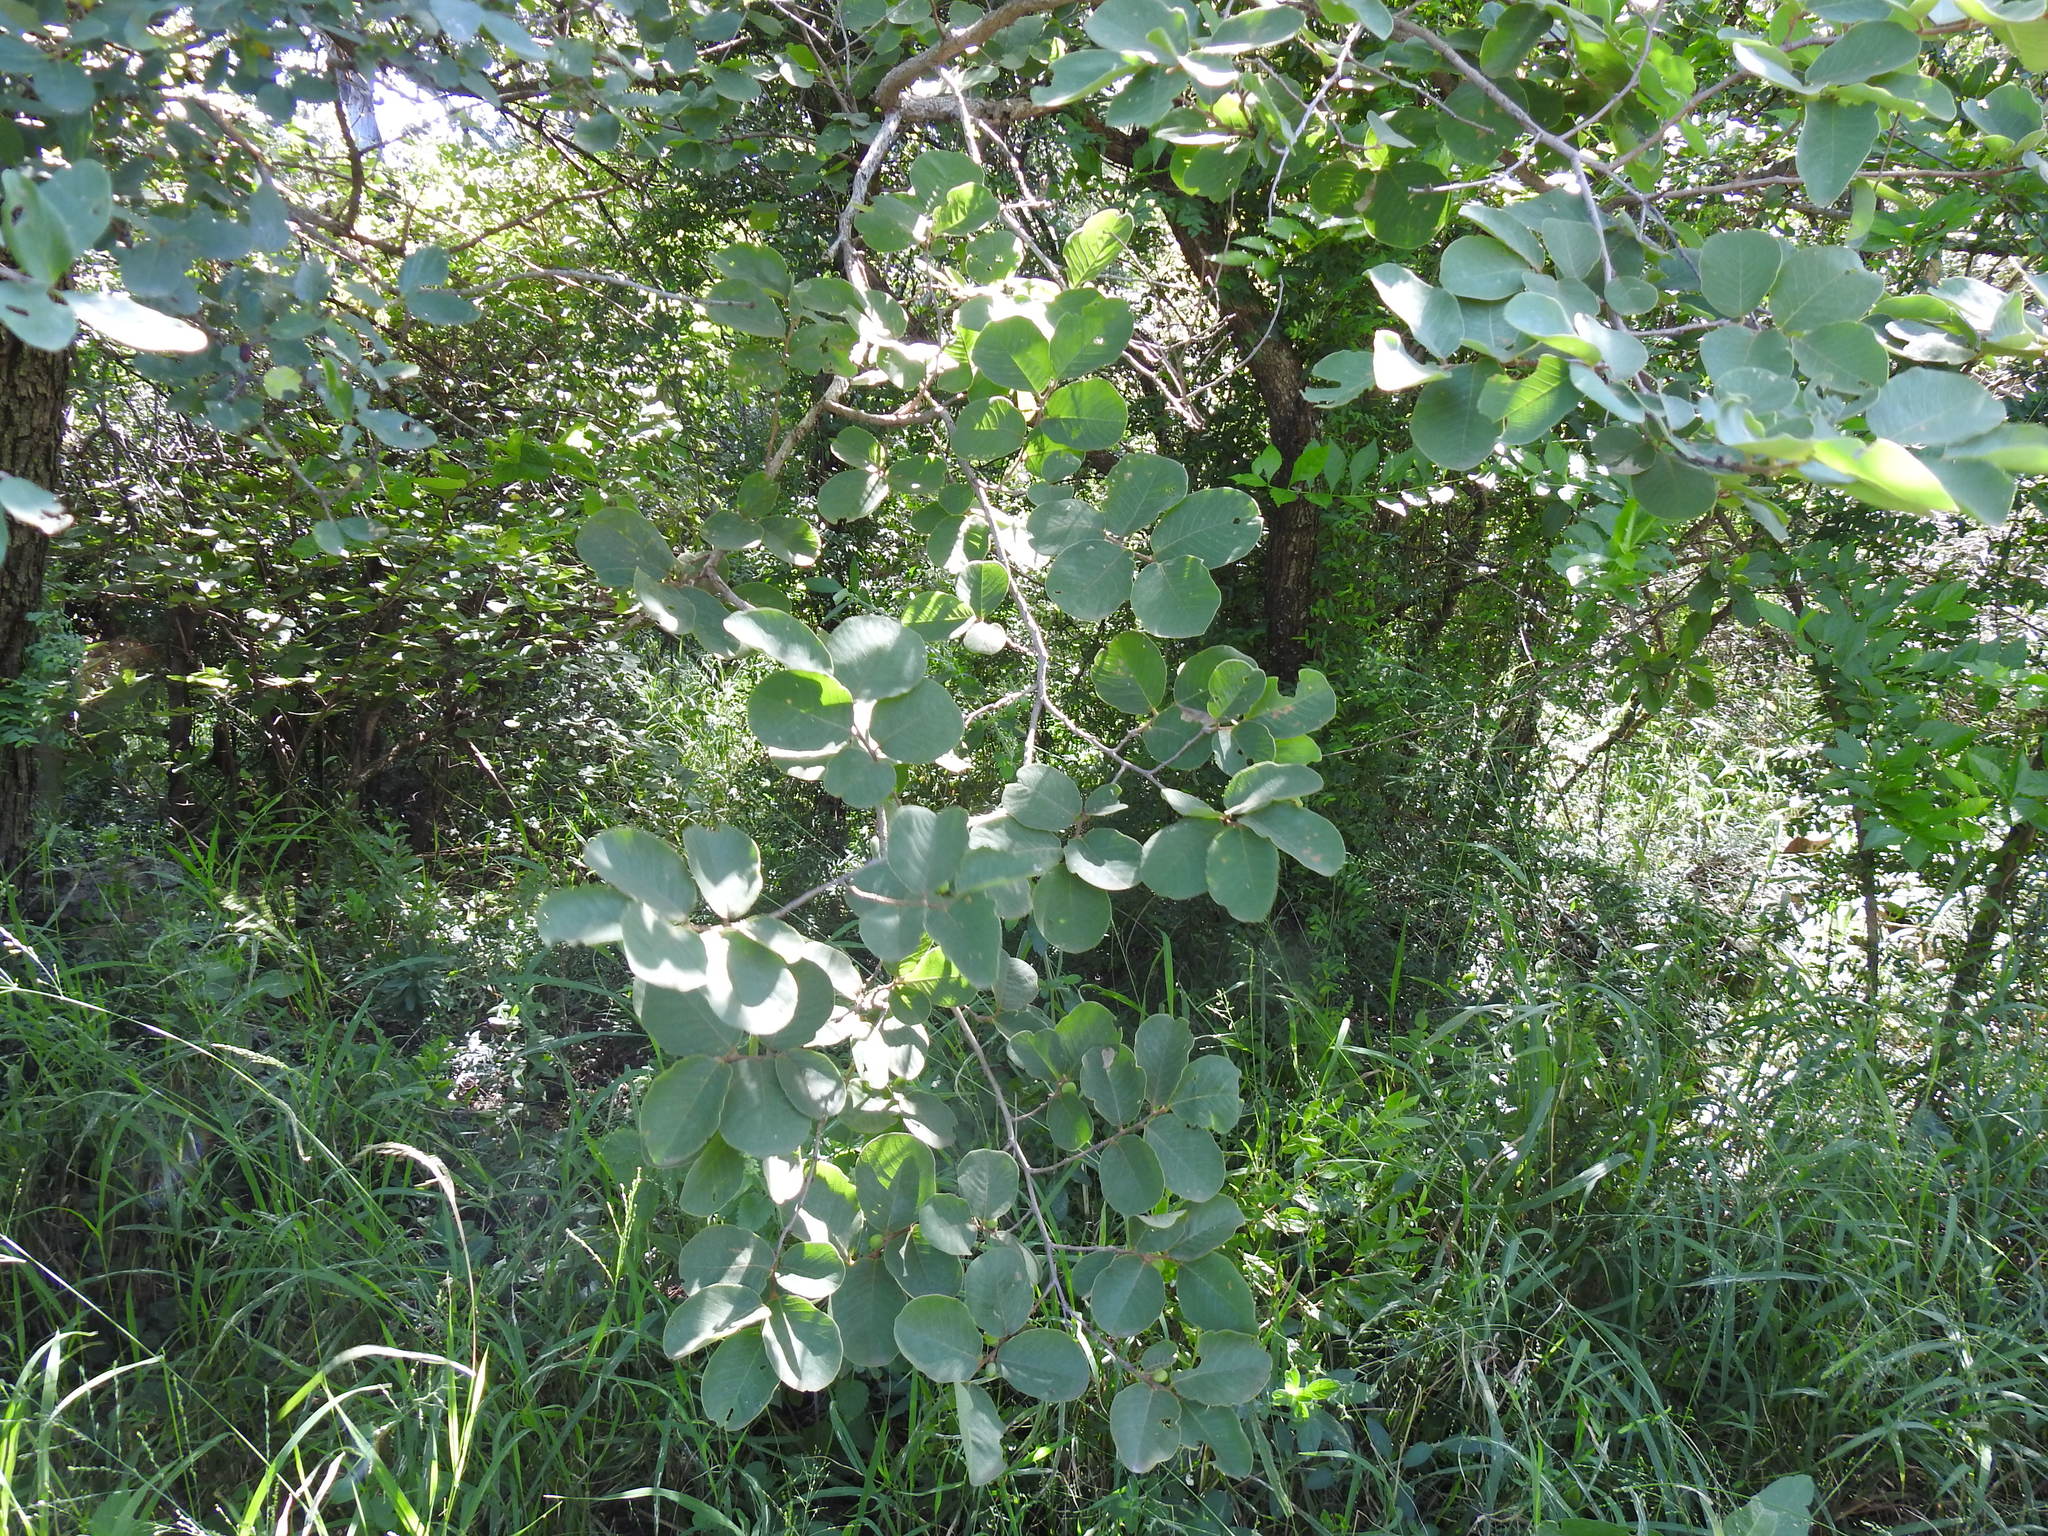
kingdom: Plantae
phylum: Tracheophyta
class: Magnoliopsida
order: Malpighiales
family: Phyllanthaceae
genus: Bridelia
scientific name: Bridelia mollis
